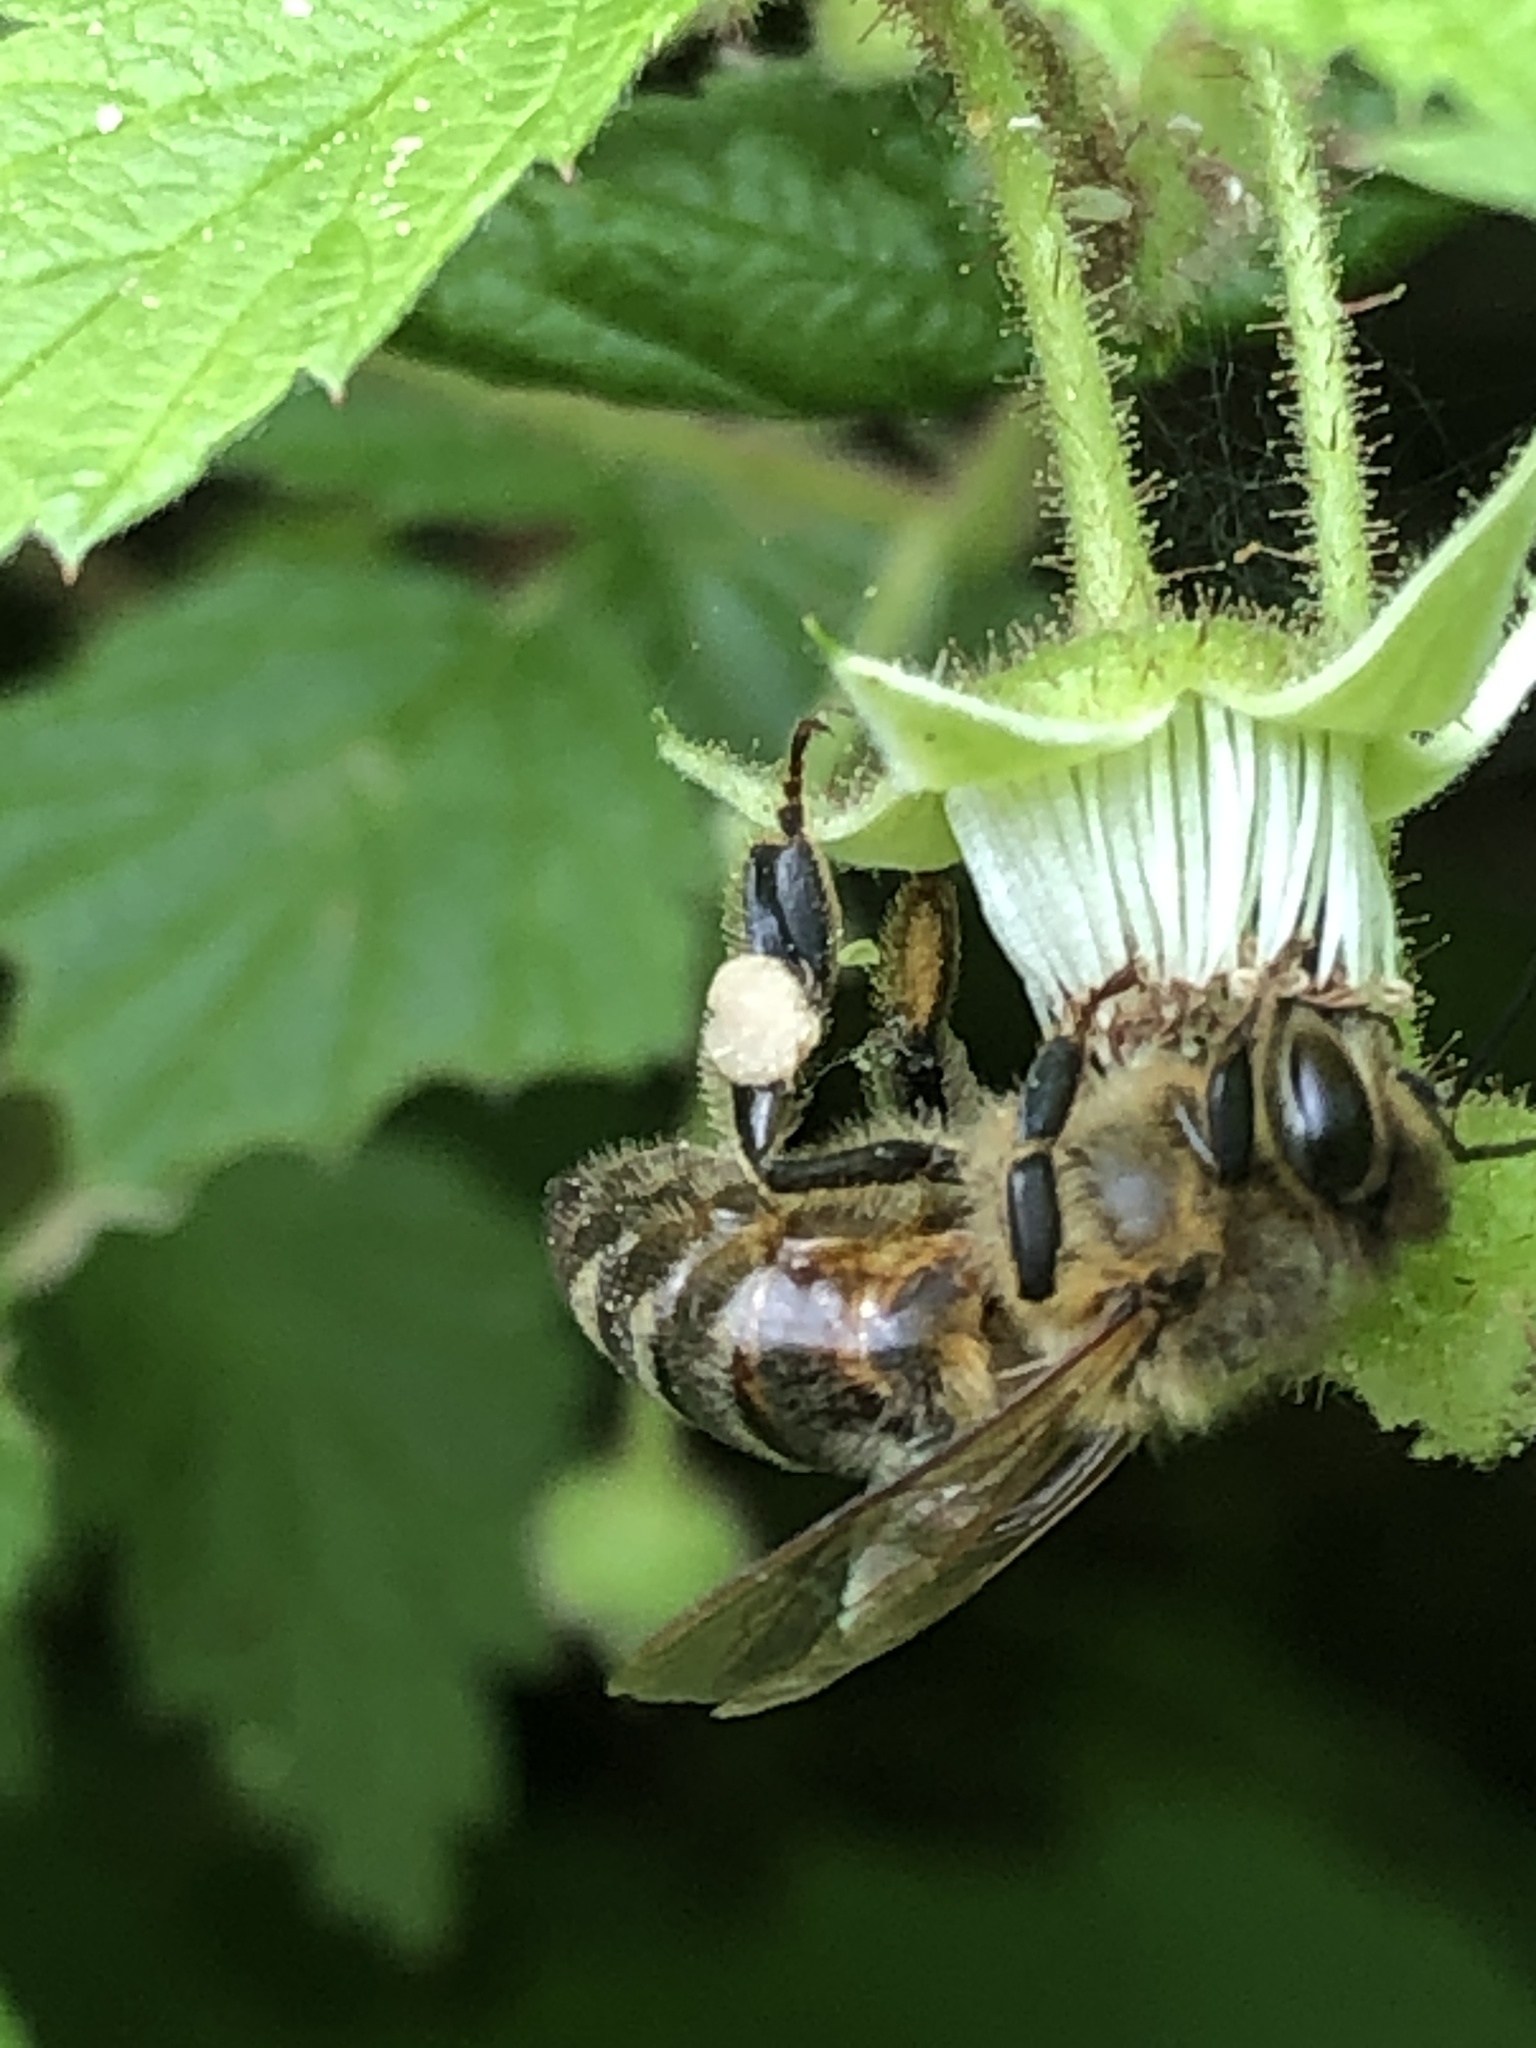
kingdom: Animalia
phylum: Arthropoda
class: Insecta
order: Hymenoptera
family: Apidae
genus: Apis
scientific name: Apis mellifera
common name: Honey bee
